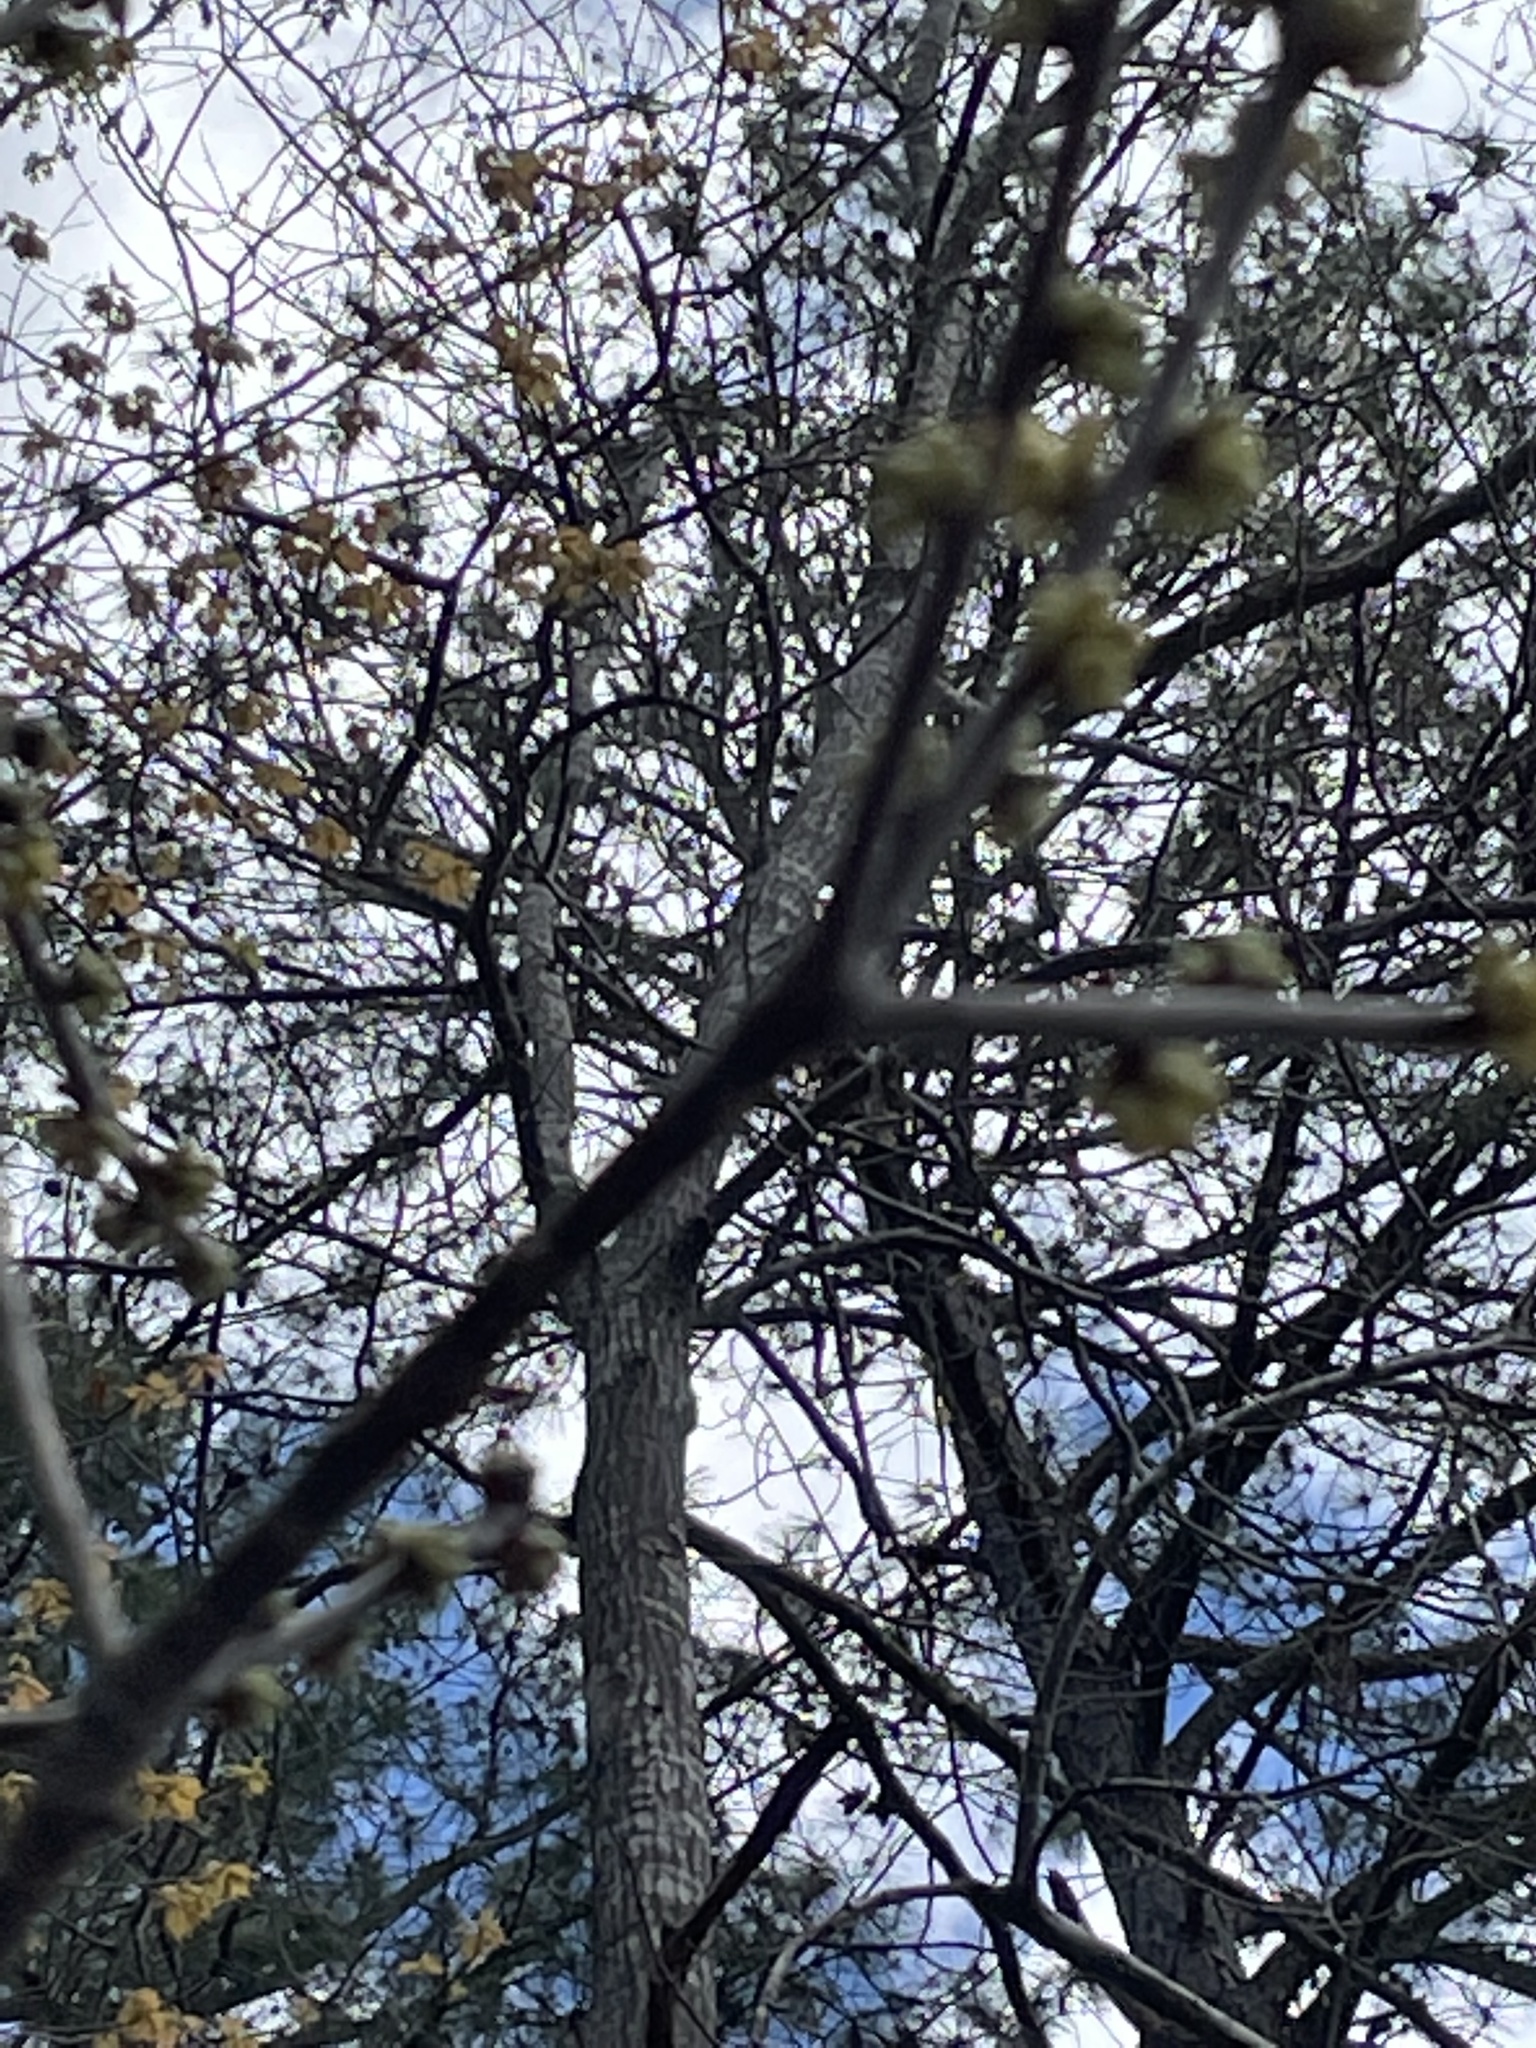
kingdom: Plantae
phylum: Tracheophyta
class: Magnoliopsida
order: Ericales
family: Symplocaceae
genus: Symplocos
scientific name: Symplocos tinctoria
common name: Horse-sugar
